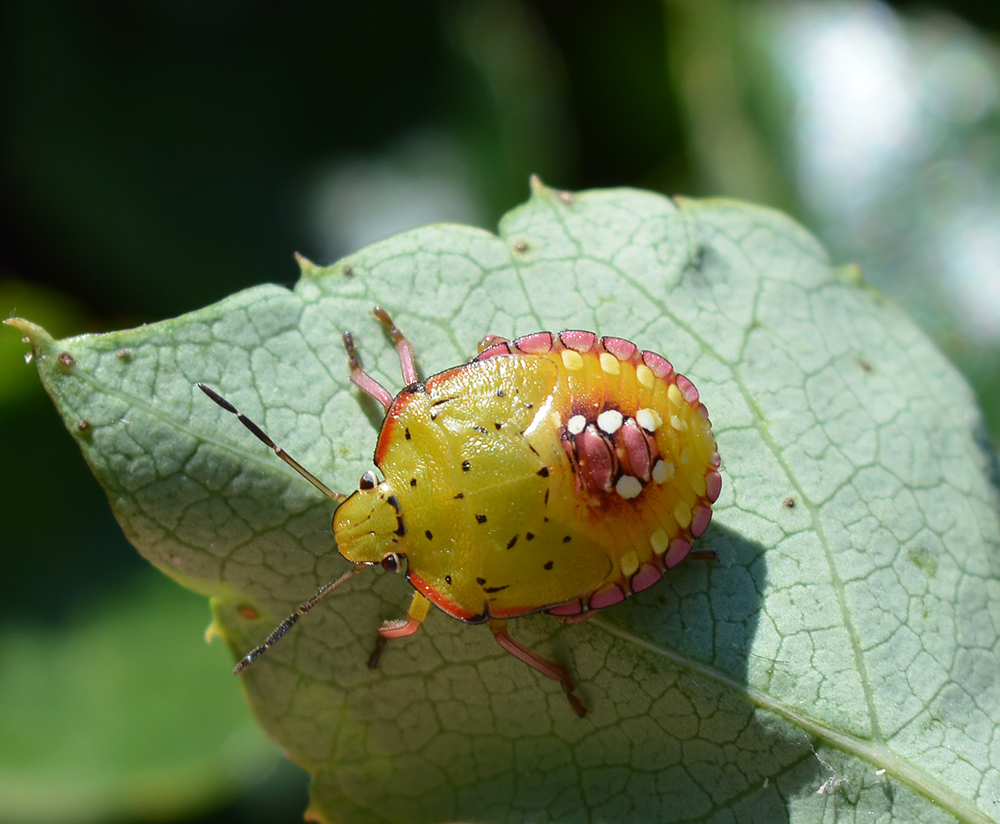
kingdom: Animalia
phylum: Arthropoda
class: Insecta
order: Hemiptera
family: Pentatomidae
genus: Nezara
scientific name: Nezara viridula
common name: Southern green stink bug
